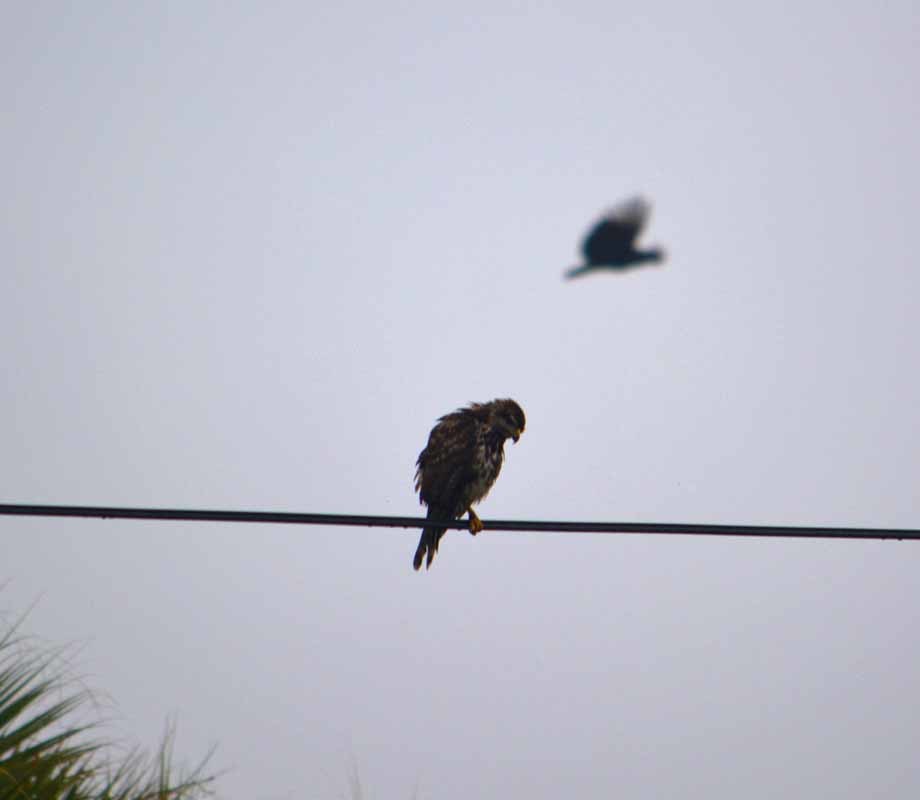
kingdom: Animalia
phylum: Chordata
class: Aves
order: Accipitriformes
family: Accipitridae
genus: Buteo
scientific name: Buteo nitidus
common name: Grey-lined hawk
